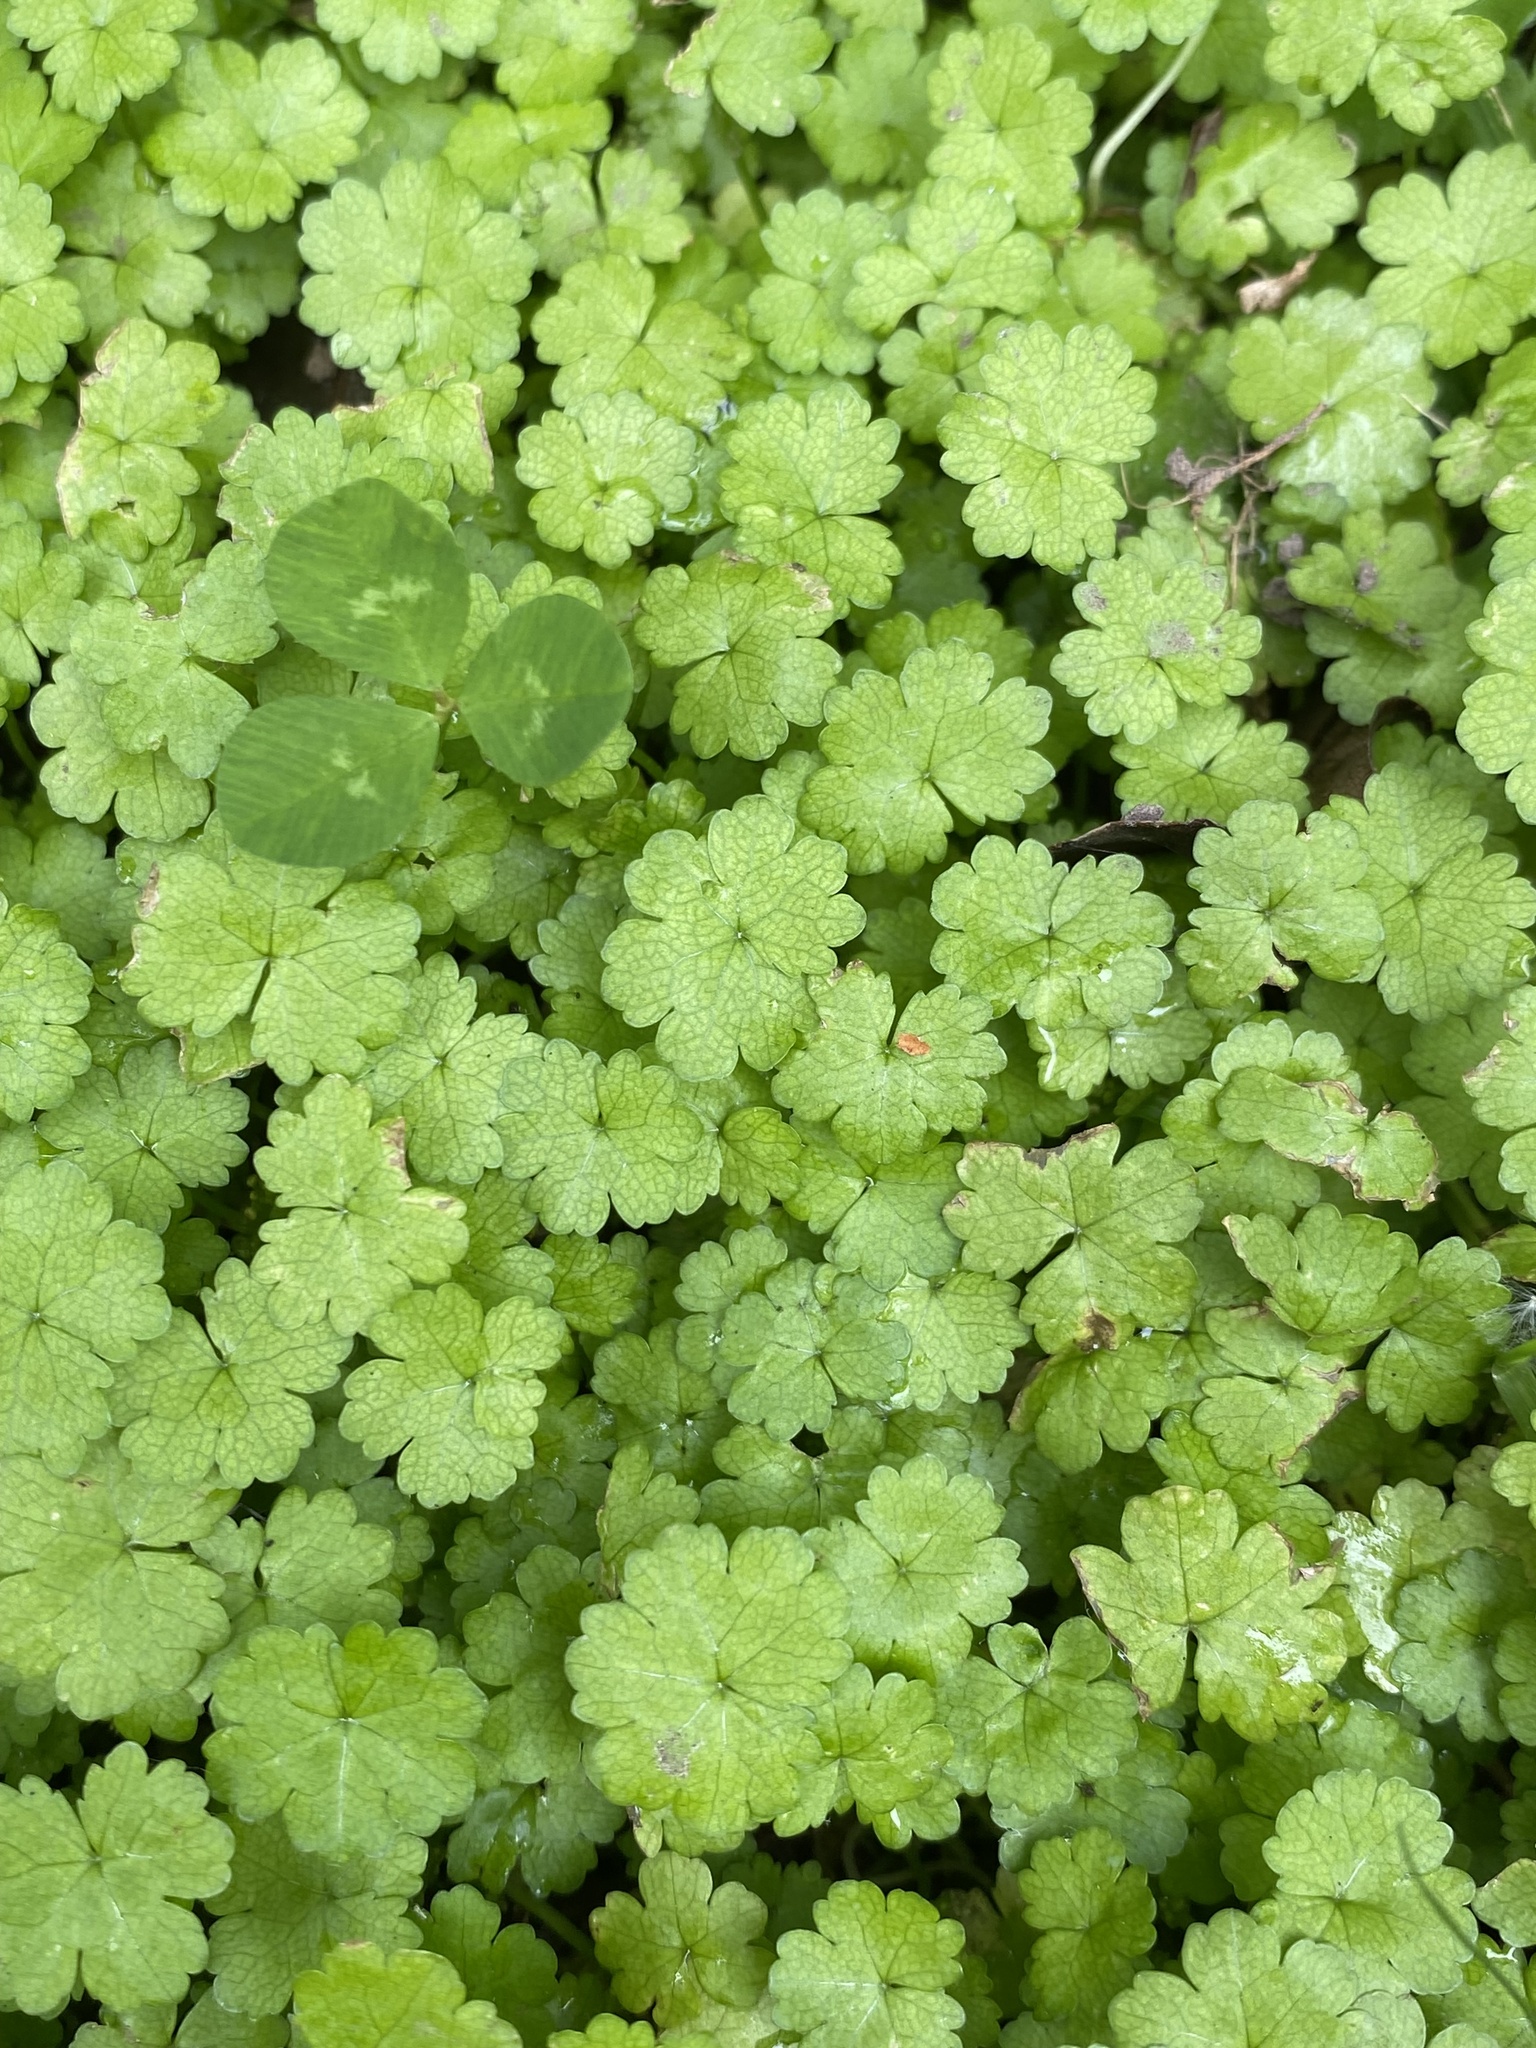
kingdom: Plantae
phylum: Tracheophyta
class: Magnoliopsida
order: Apiales
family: Araliaceae
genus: Hydrocotyle
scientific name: Hydrocotyle heteromeria
